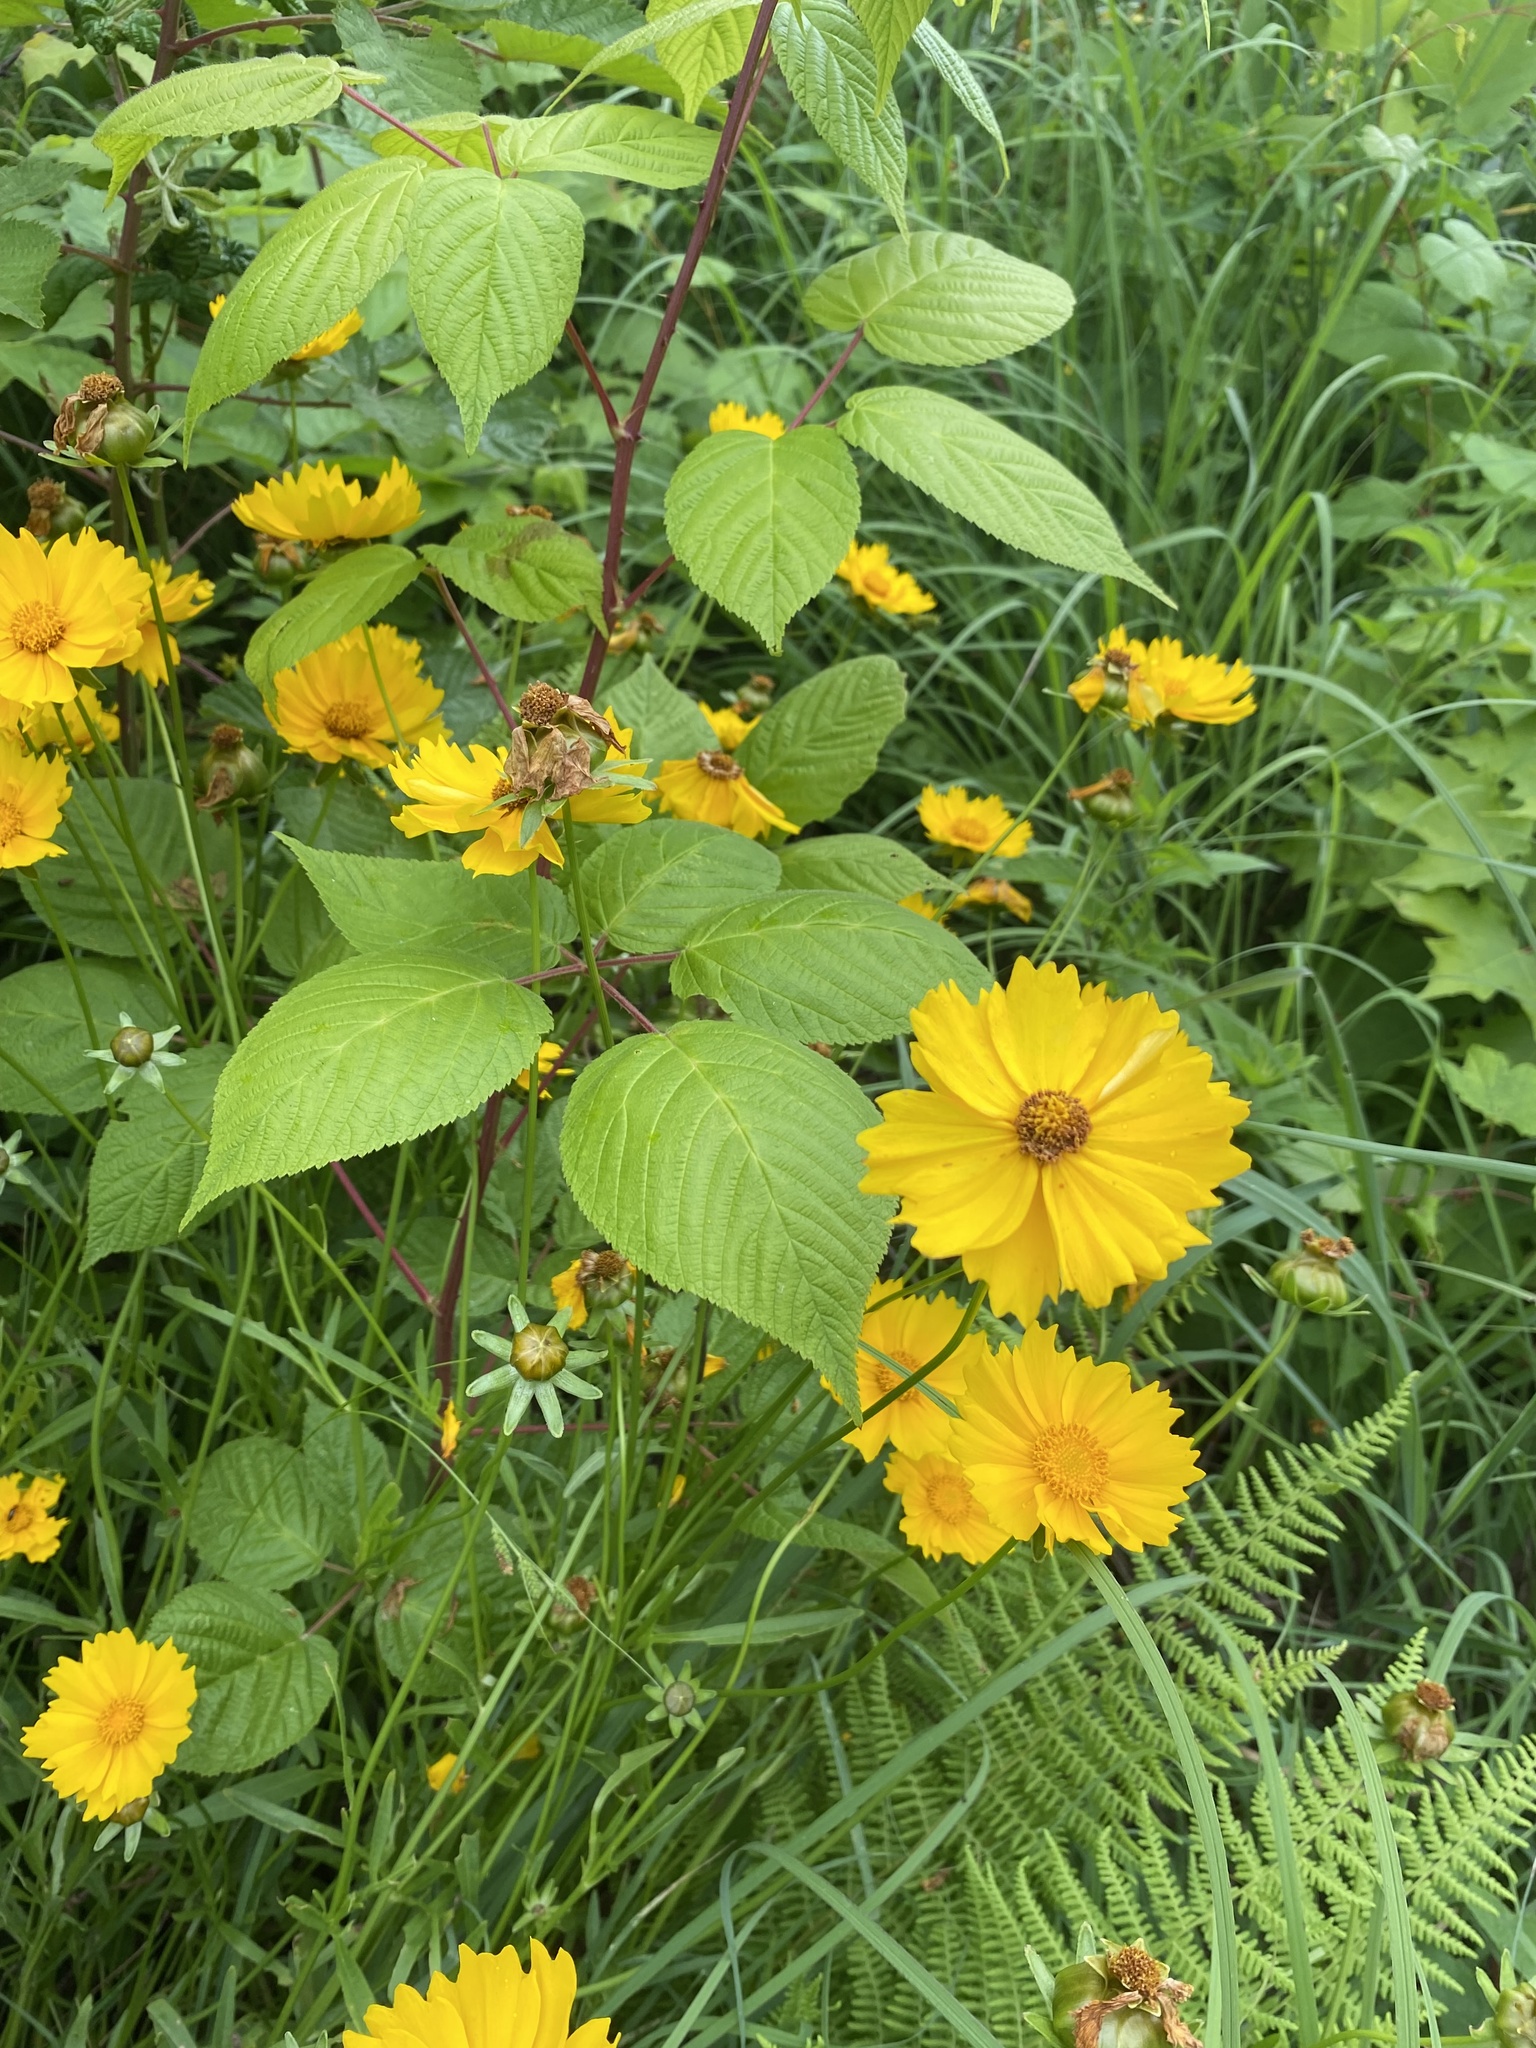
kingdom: Plantae
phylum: Tracheophyta
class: Magnoliopsida
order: Asterales
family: Asteraceae
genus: Coreopsis
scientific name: Coreopsis lanceolata
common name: Garden coreopsis
